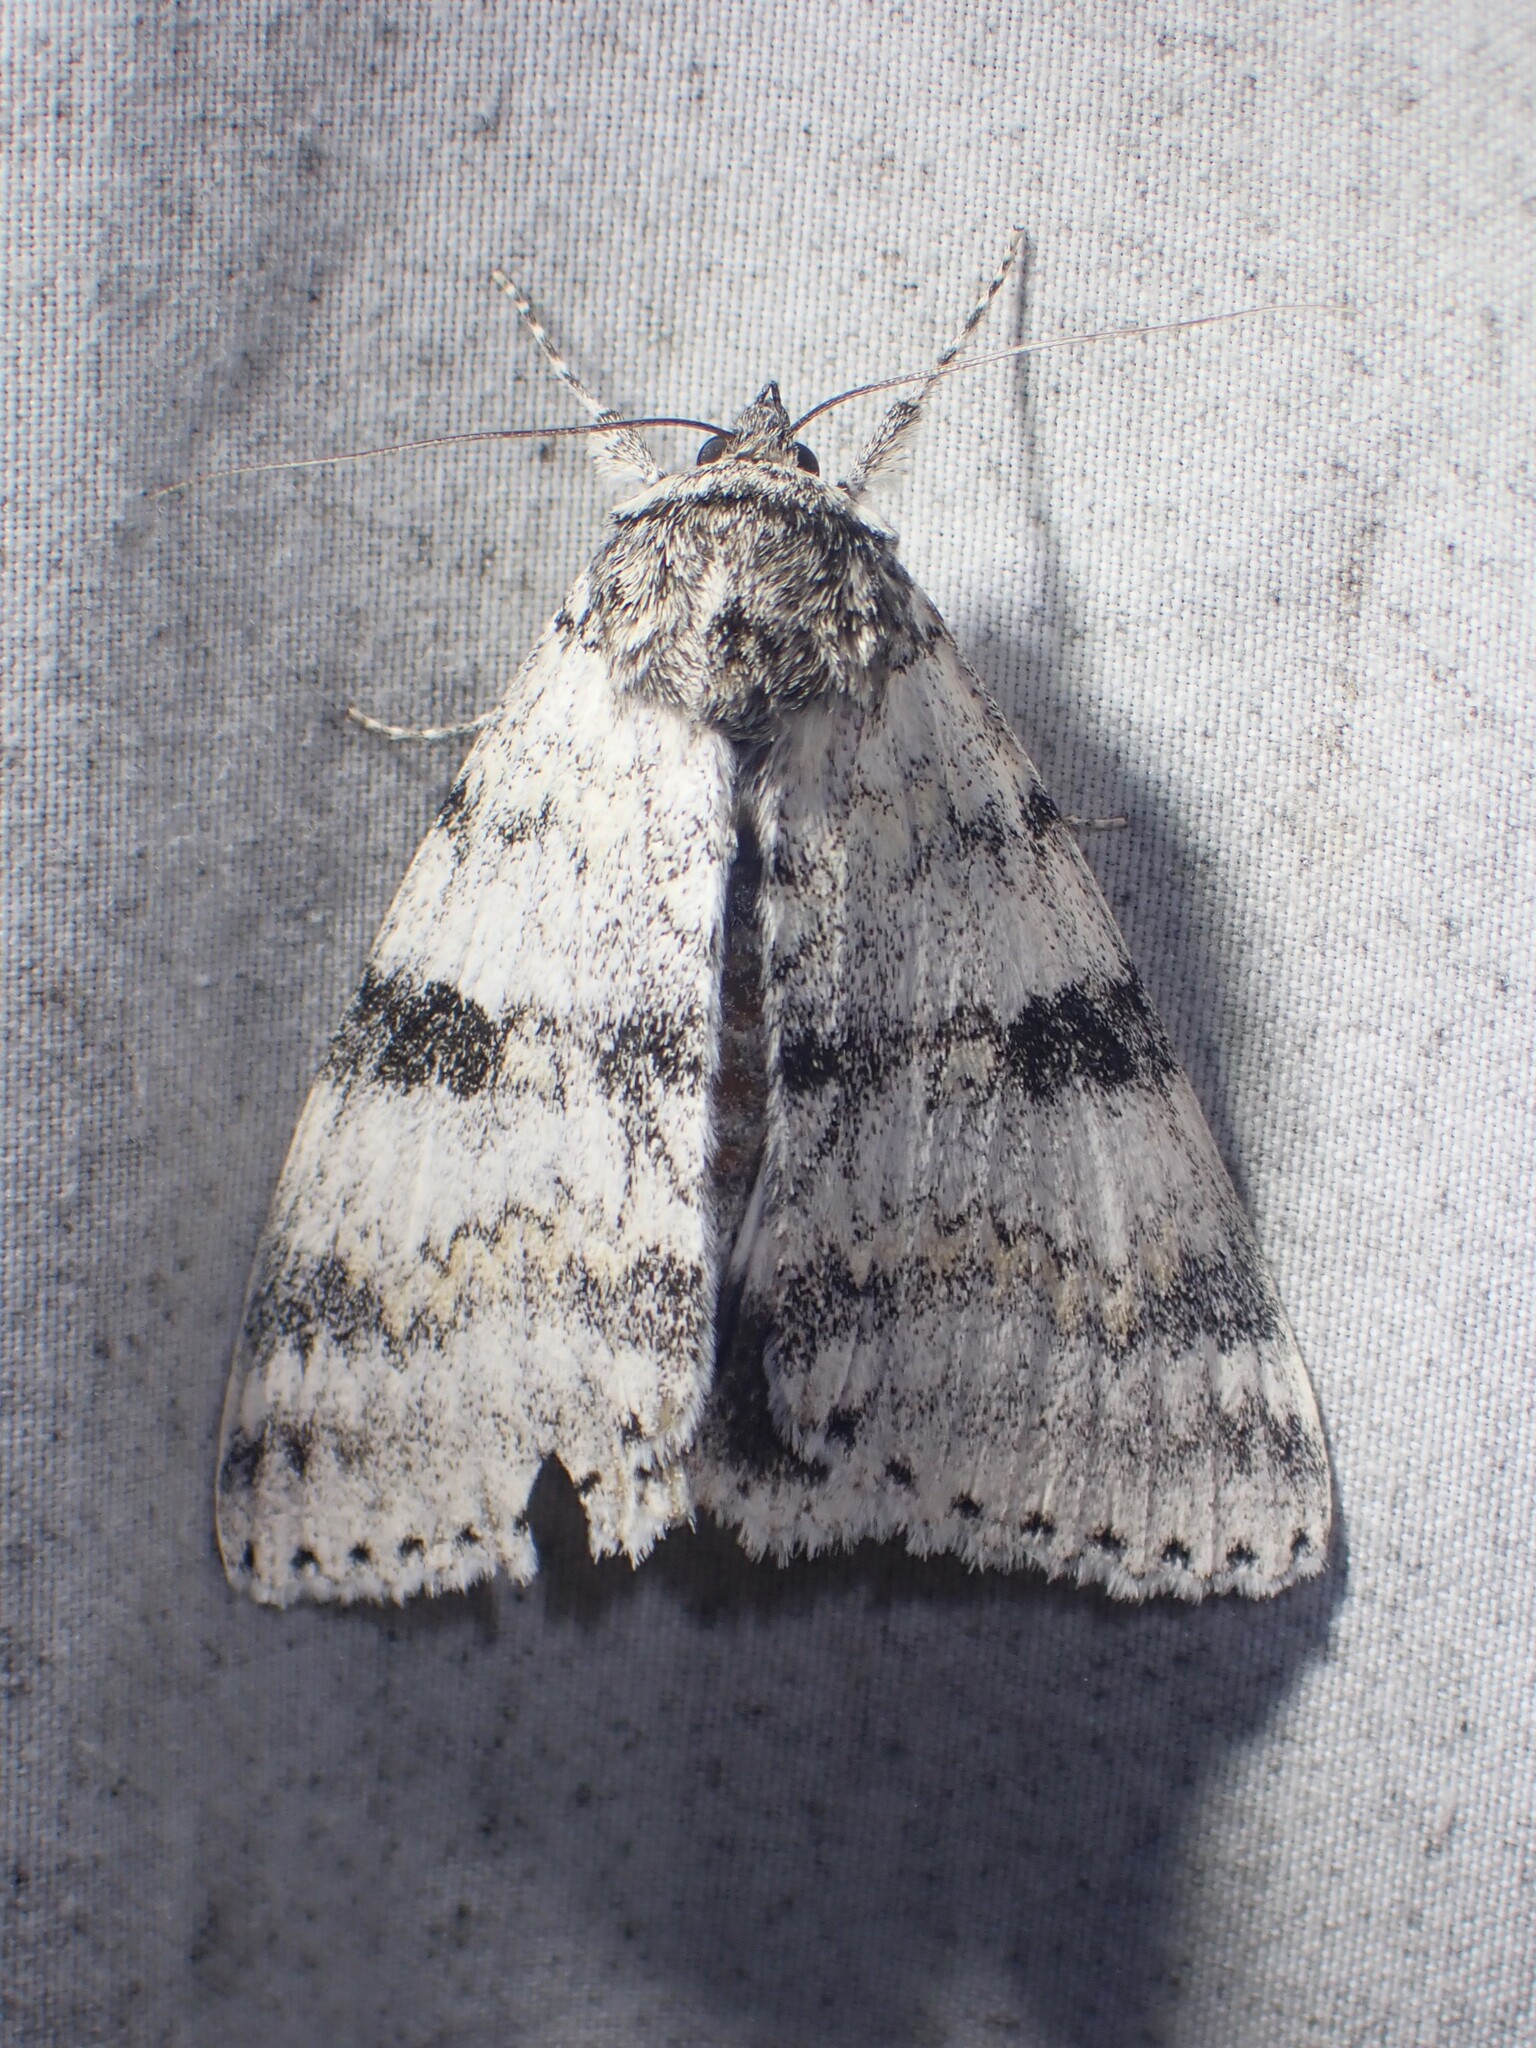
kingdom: Animalia
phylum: Arthropoda
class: Insecta
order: Lepidoptera
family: Erebidae
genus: Catocala
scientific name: Catocala relicta
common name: White underwing
